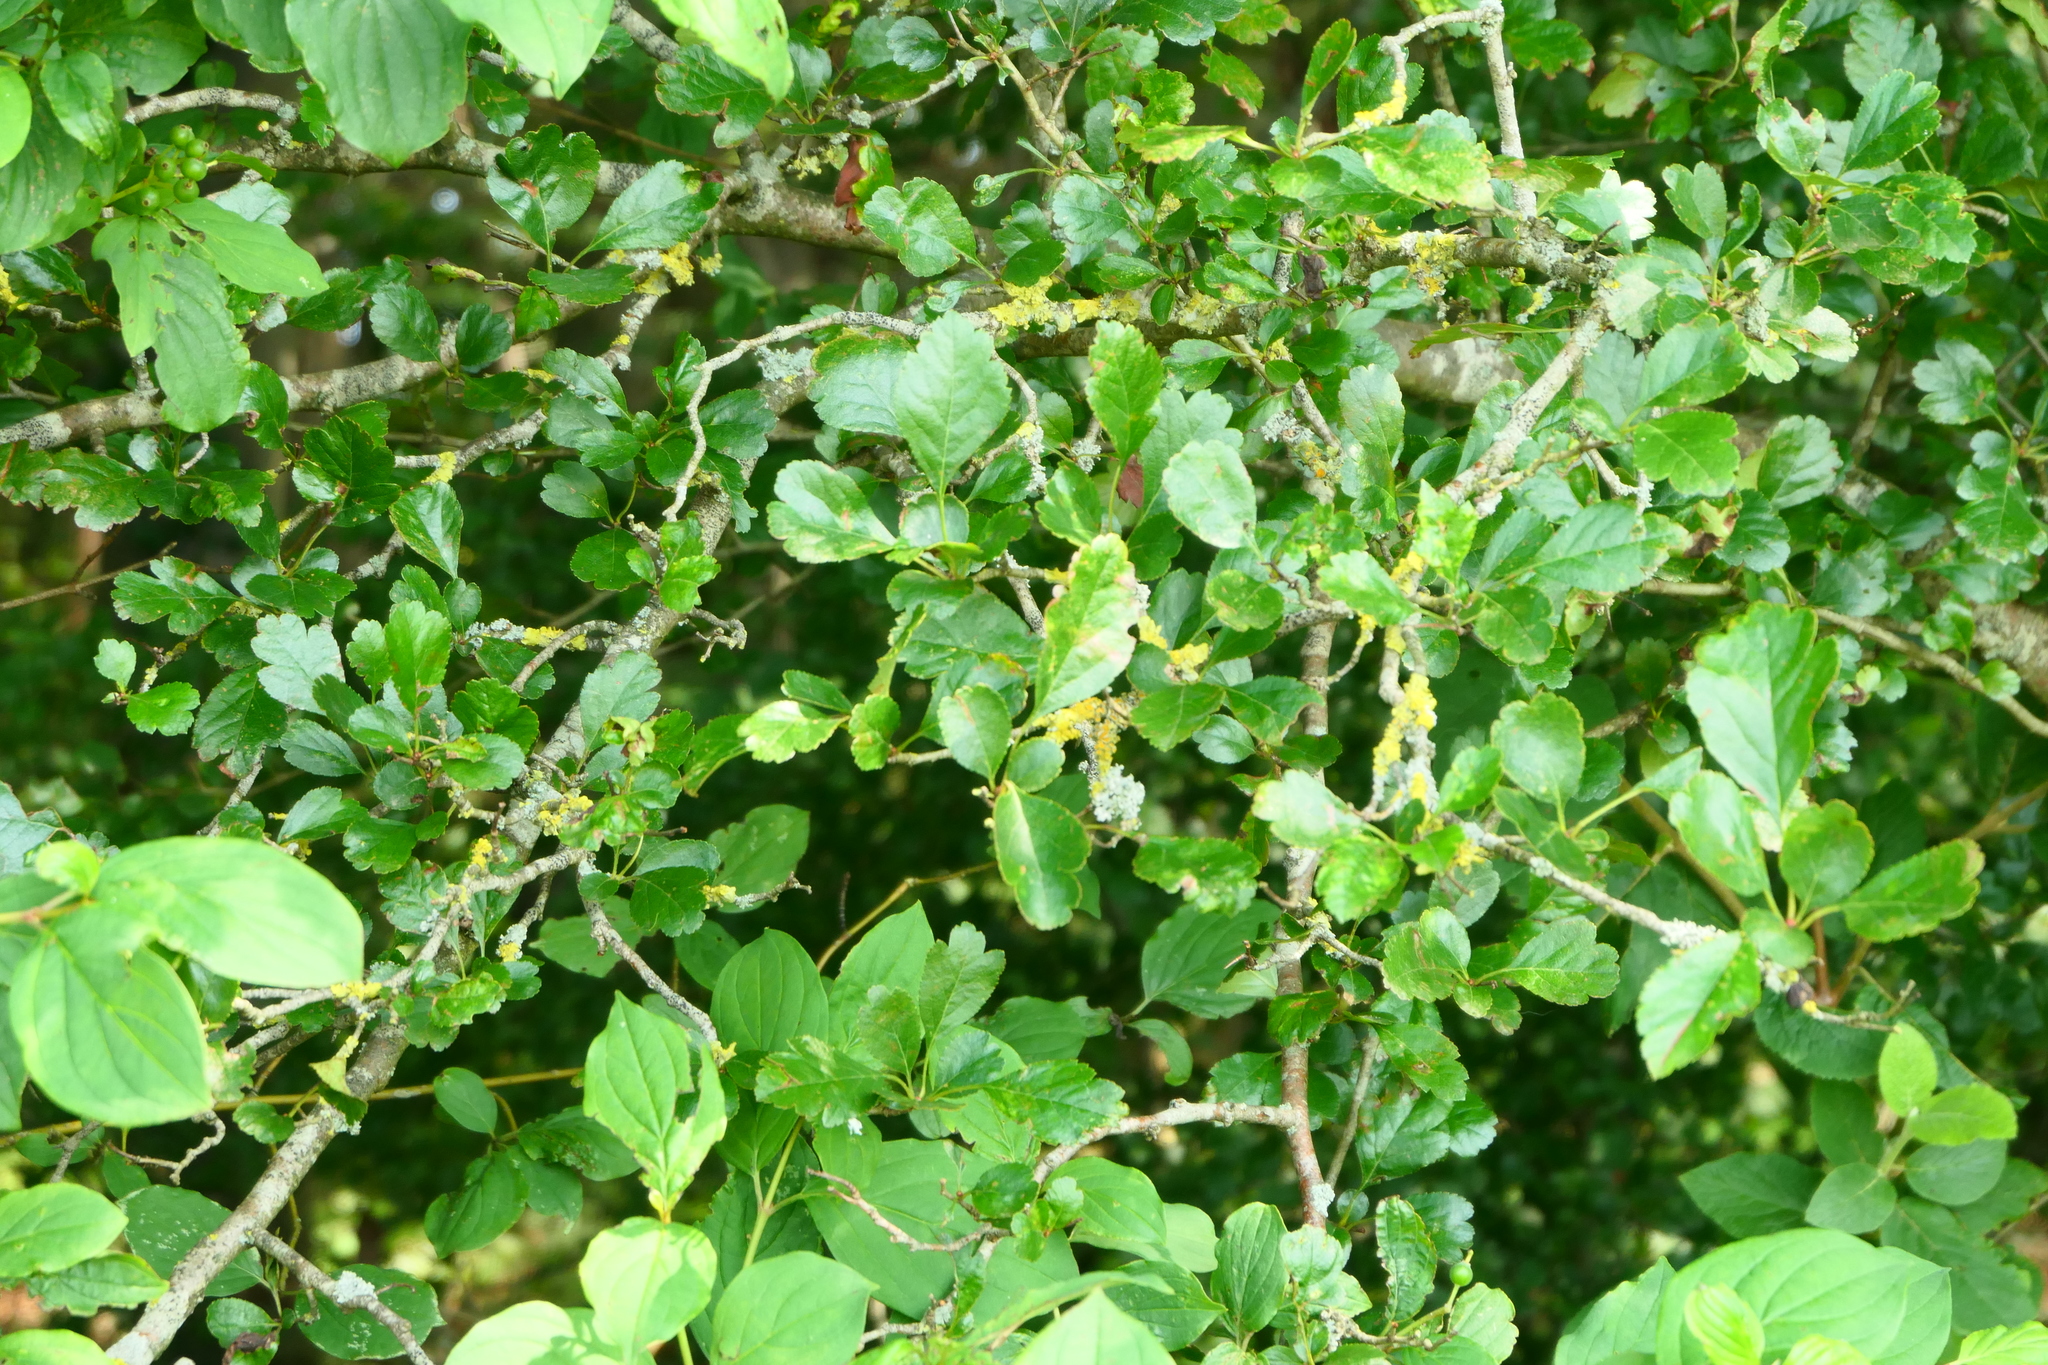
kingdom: Plantae
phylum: Tracheophyta
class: Magnoliopsida
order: Rosales
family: Rosaceae
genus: Crataegus
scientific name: Crataegus laevigata
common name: Midland hawthorn
